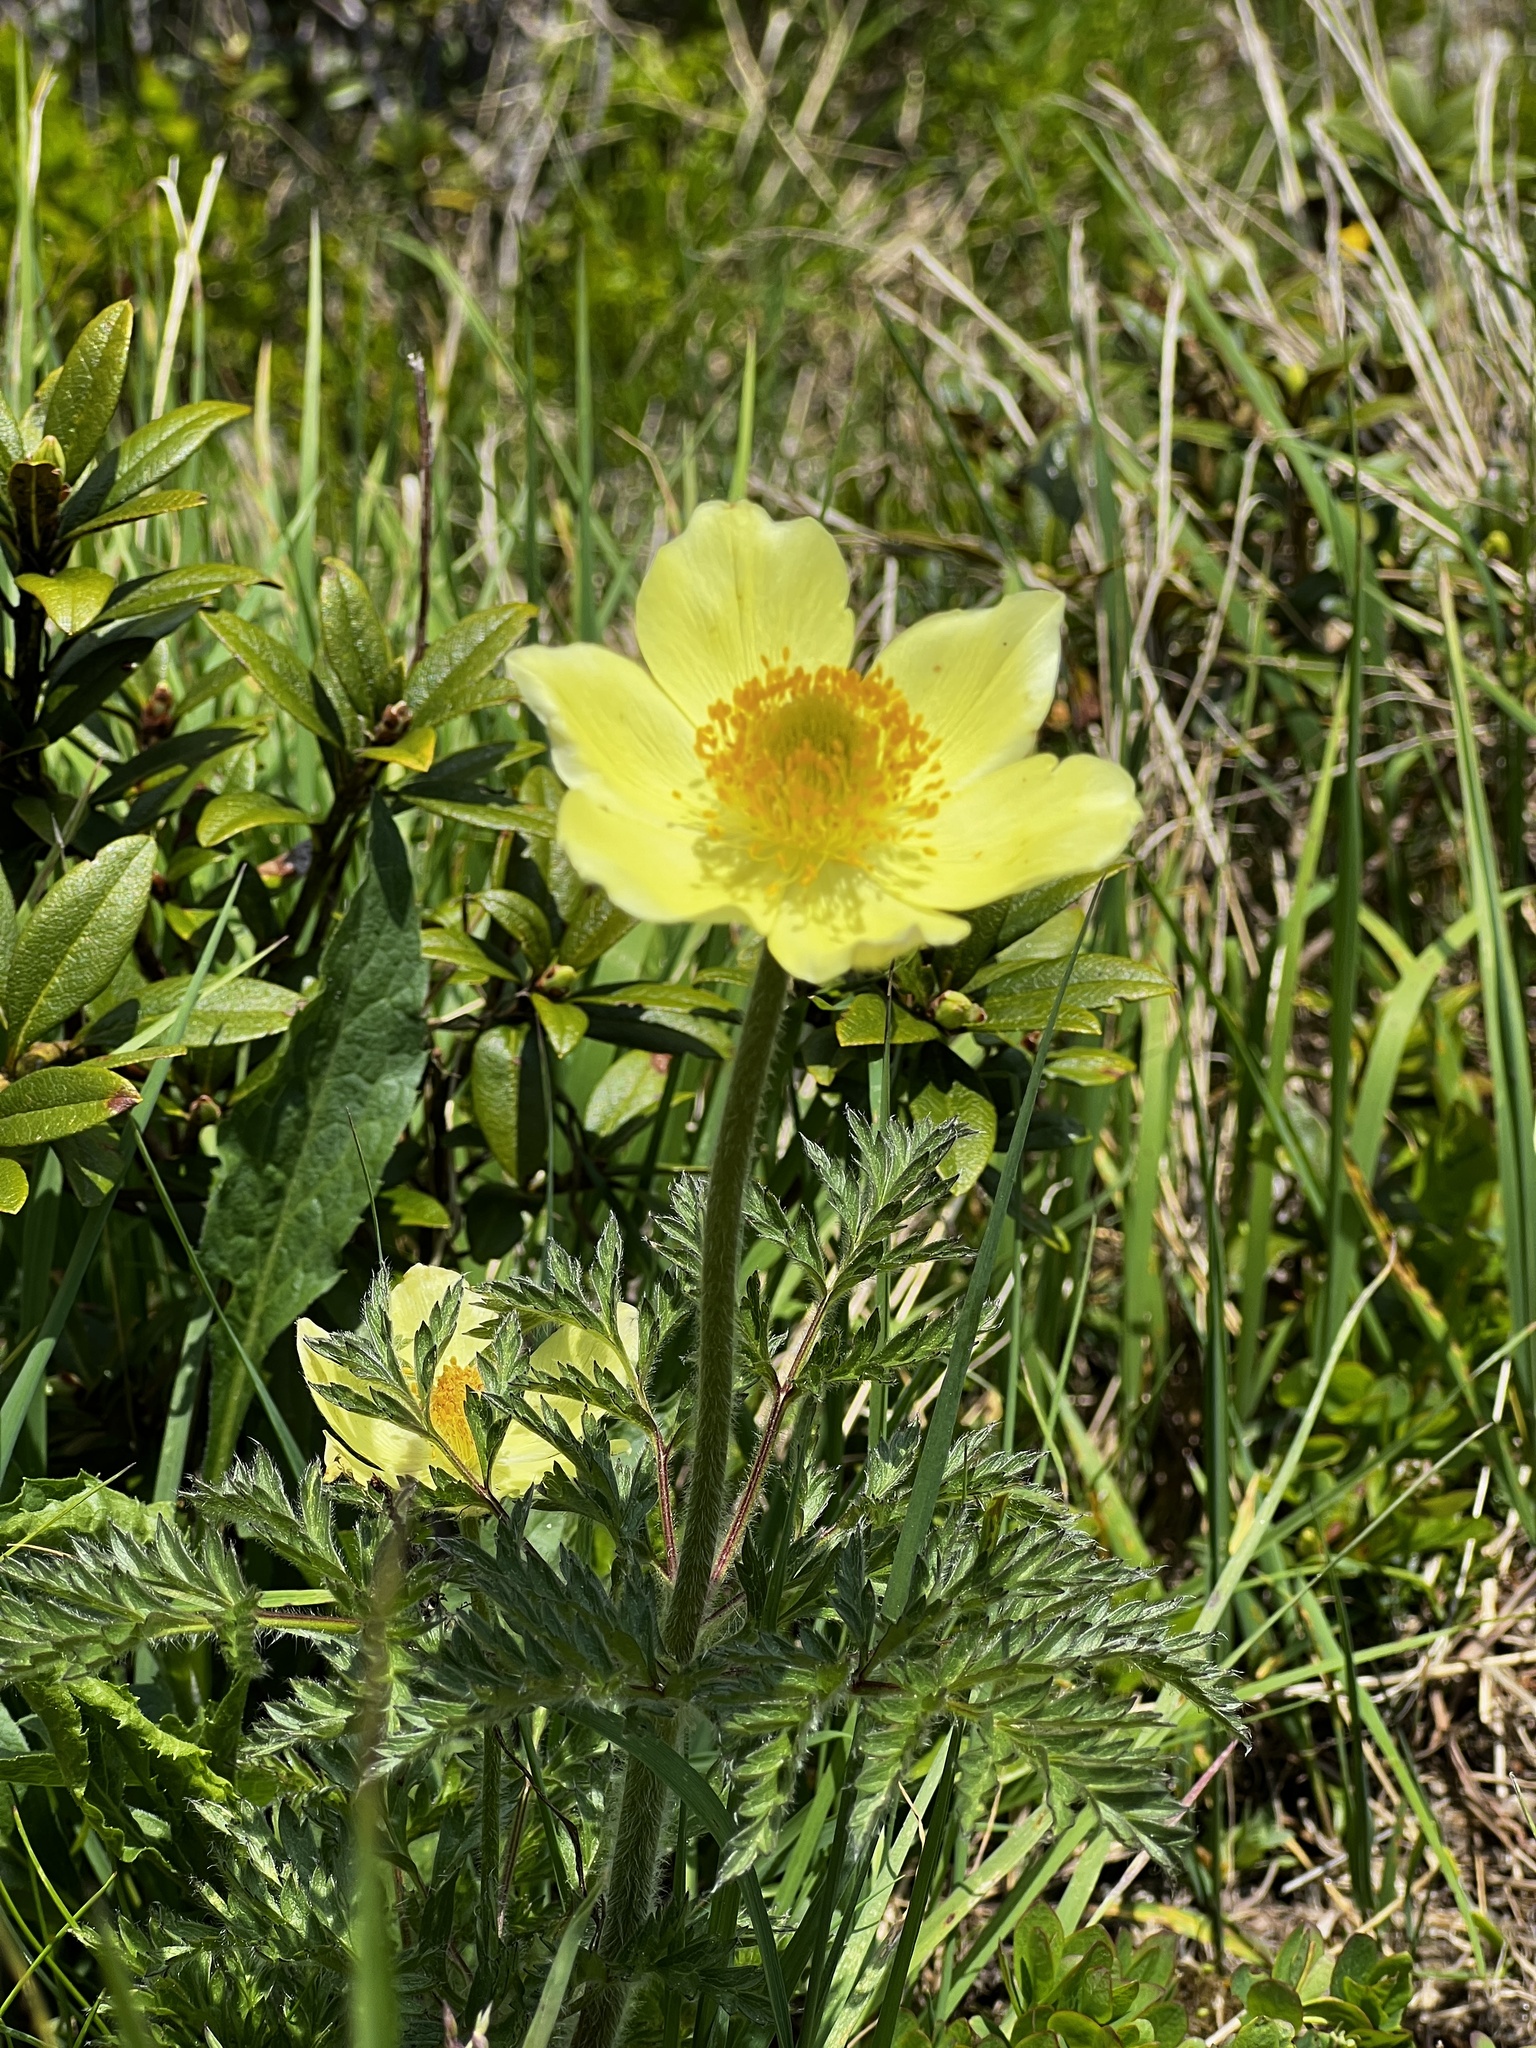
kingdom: Plantae
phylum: Tracheophyta
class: Magnoliopsida
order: Ranunculales
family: Ranunculaceae
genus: Pulsatilla
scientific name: Pulsatilla alpina
